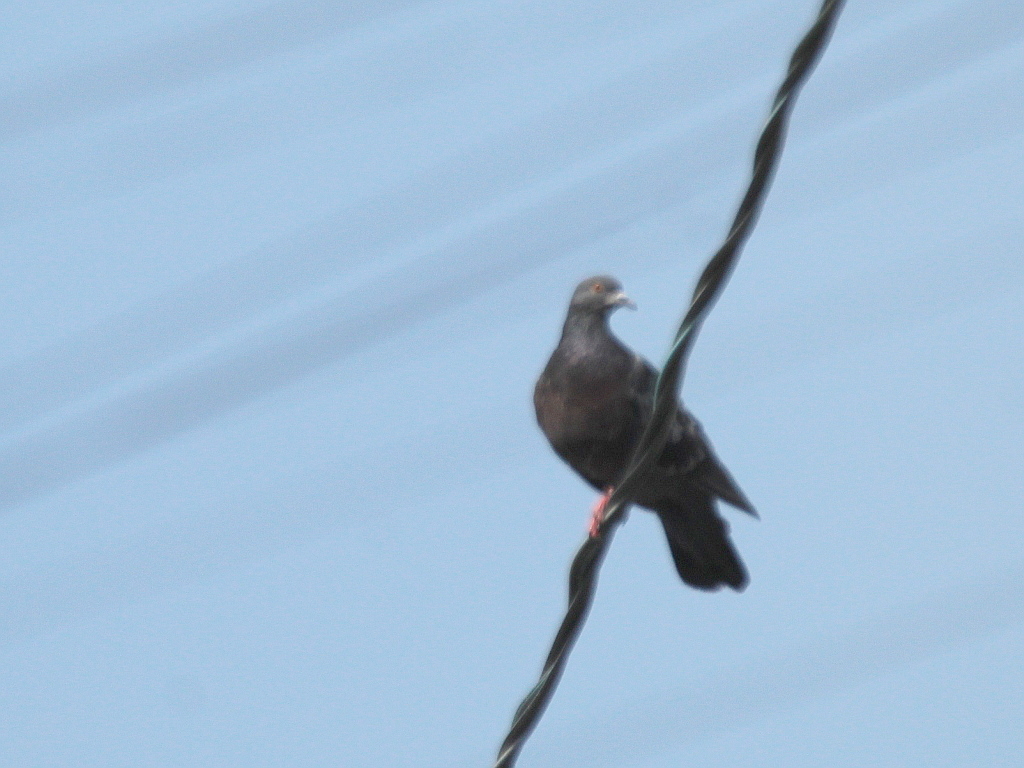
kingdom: Animalia
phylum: Chordata
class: Aves
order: Columbiformes
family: Columbidae
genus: Columba
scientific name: Columba livia
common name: Rock pigeon
